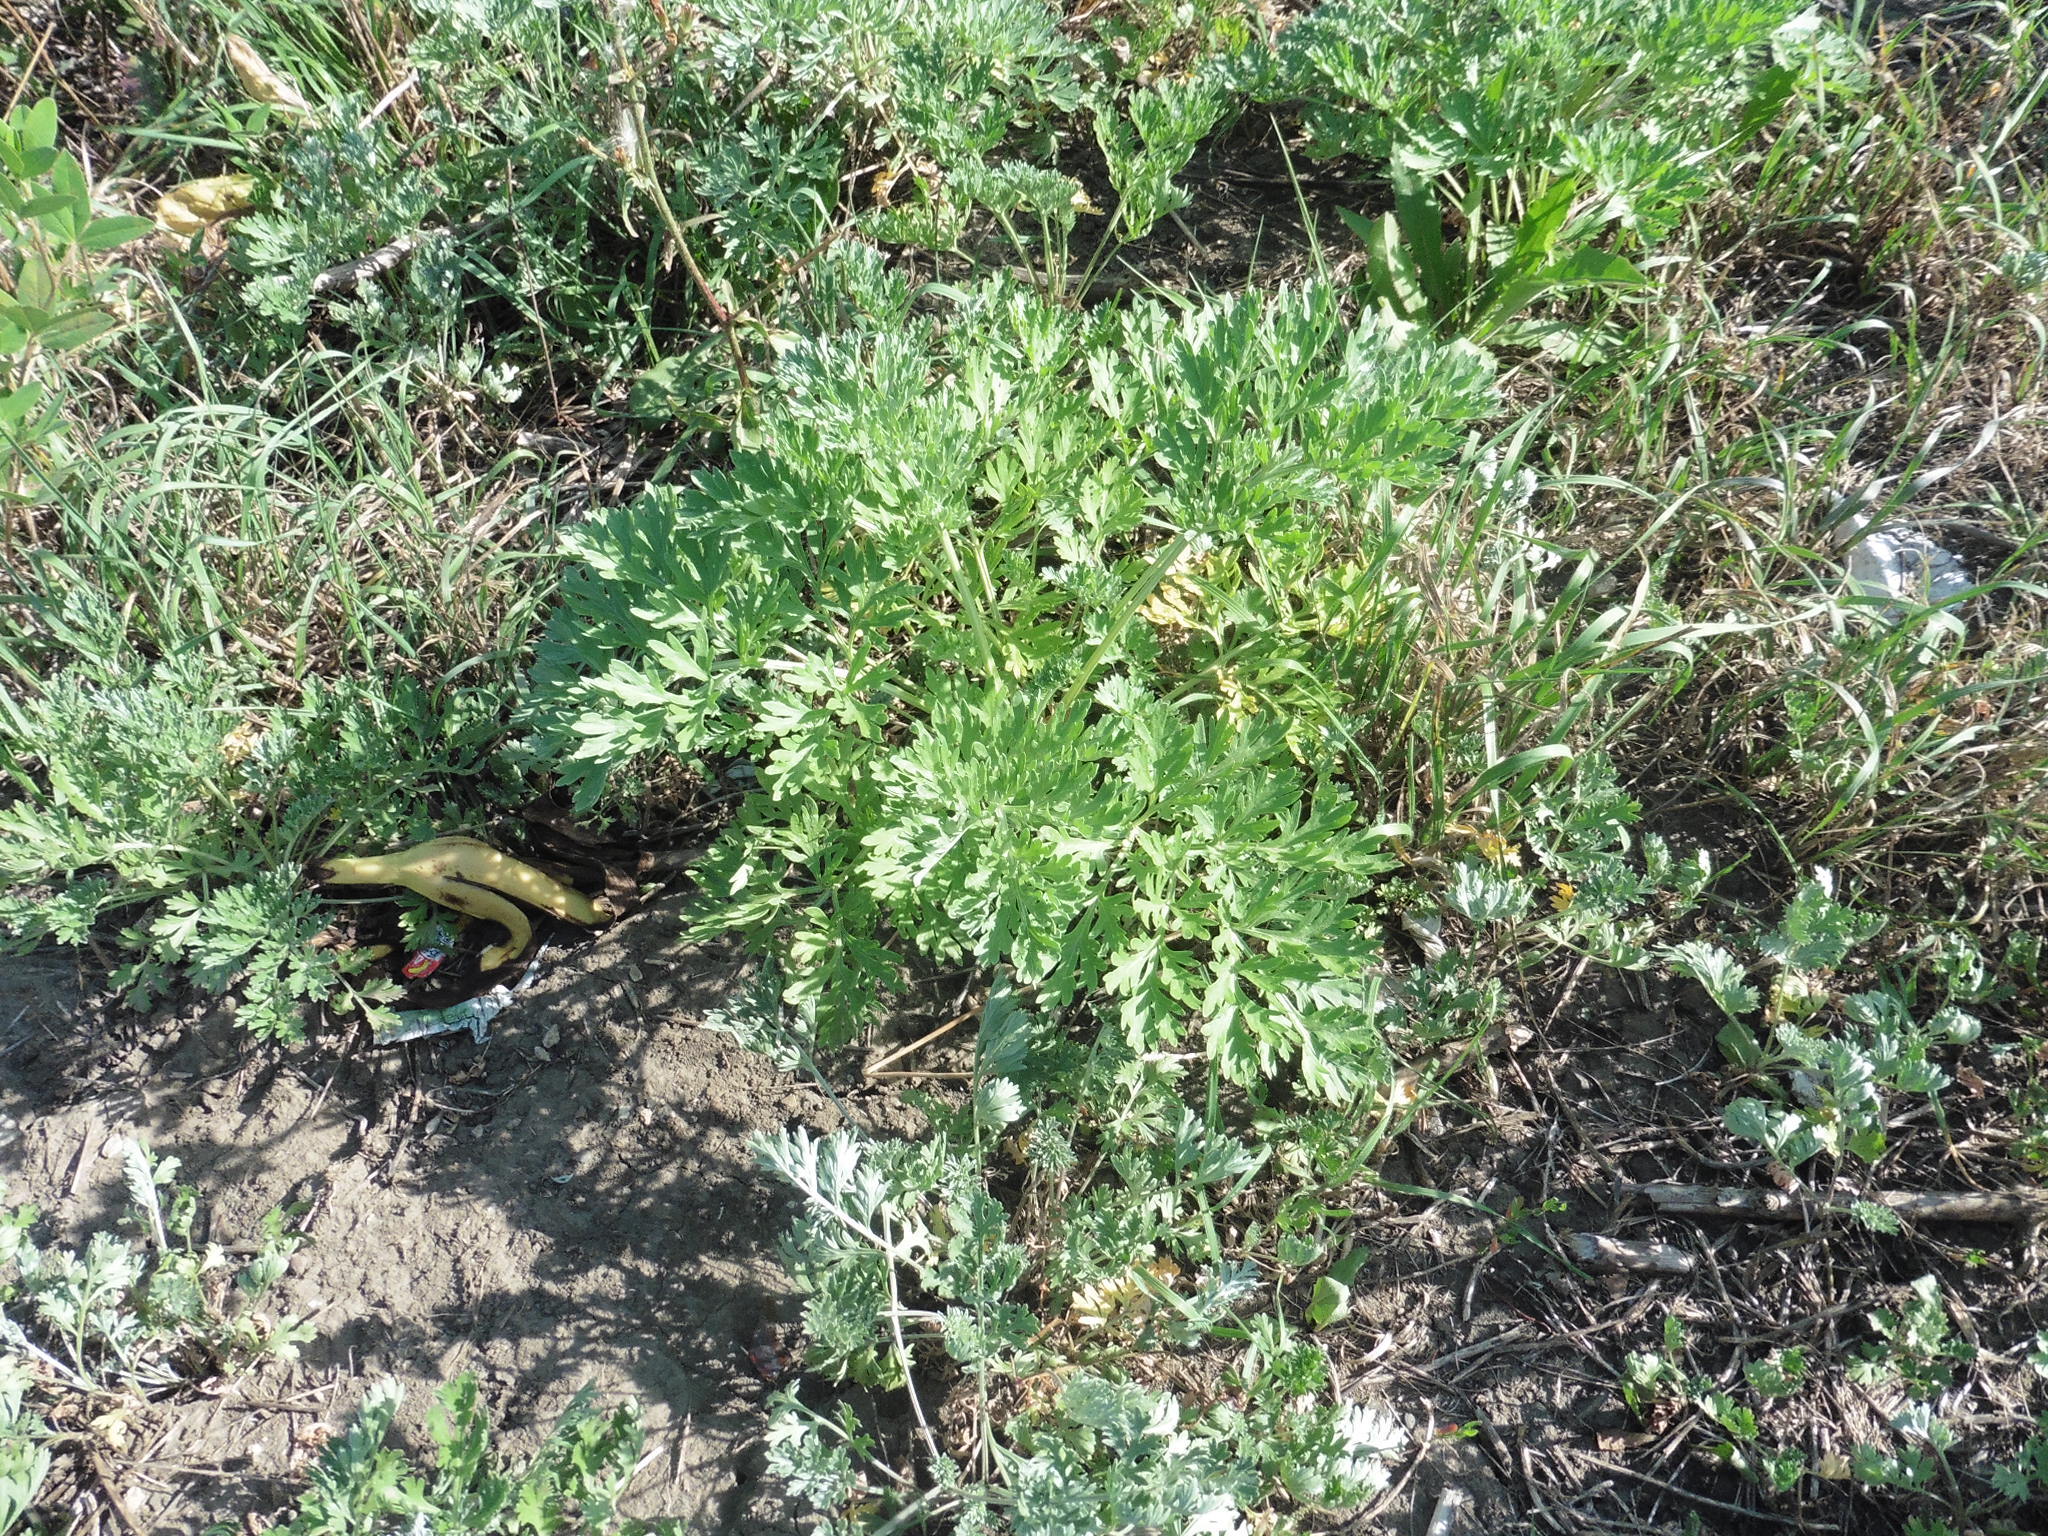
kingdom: Plantae
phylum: Tracheophyta
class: Magnoliopsida
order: Asterales
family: Asteraceae
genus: Artemisia
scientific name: Artemisia absinthium
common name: Wormwood
